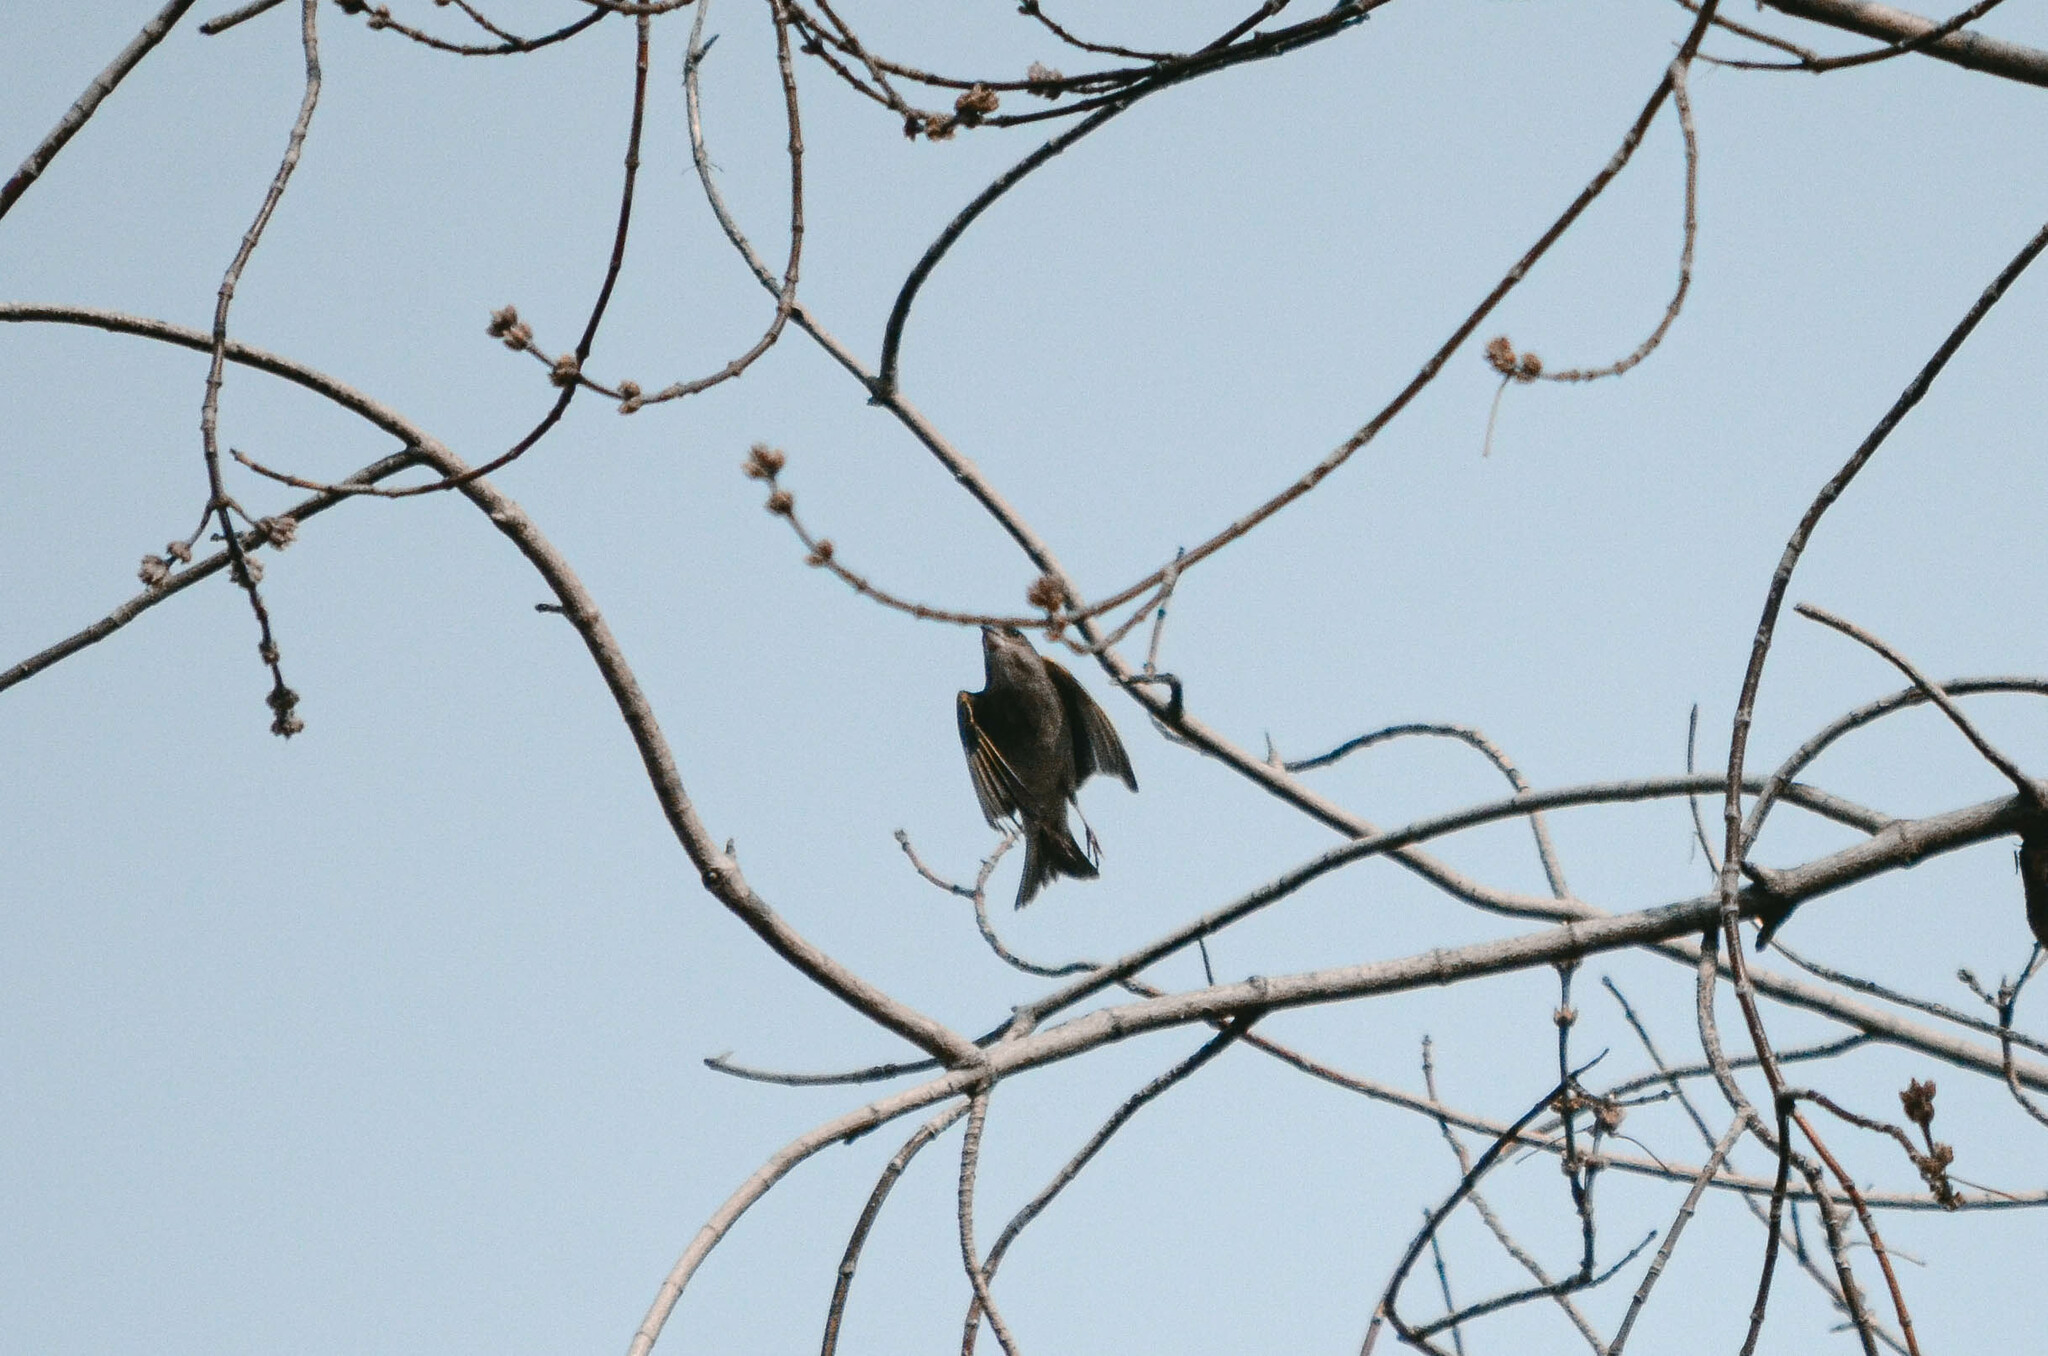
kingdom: Plantae
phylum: Tracheophyta
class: Liliopsida
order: Poales
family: Poaceae
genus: Chloris
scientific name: Chloris chloris
